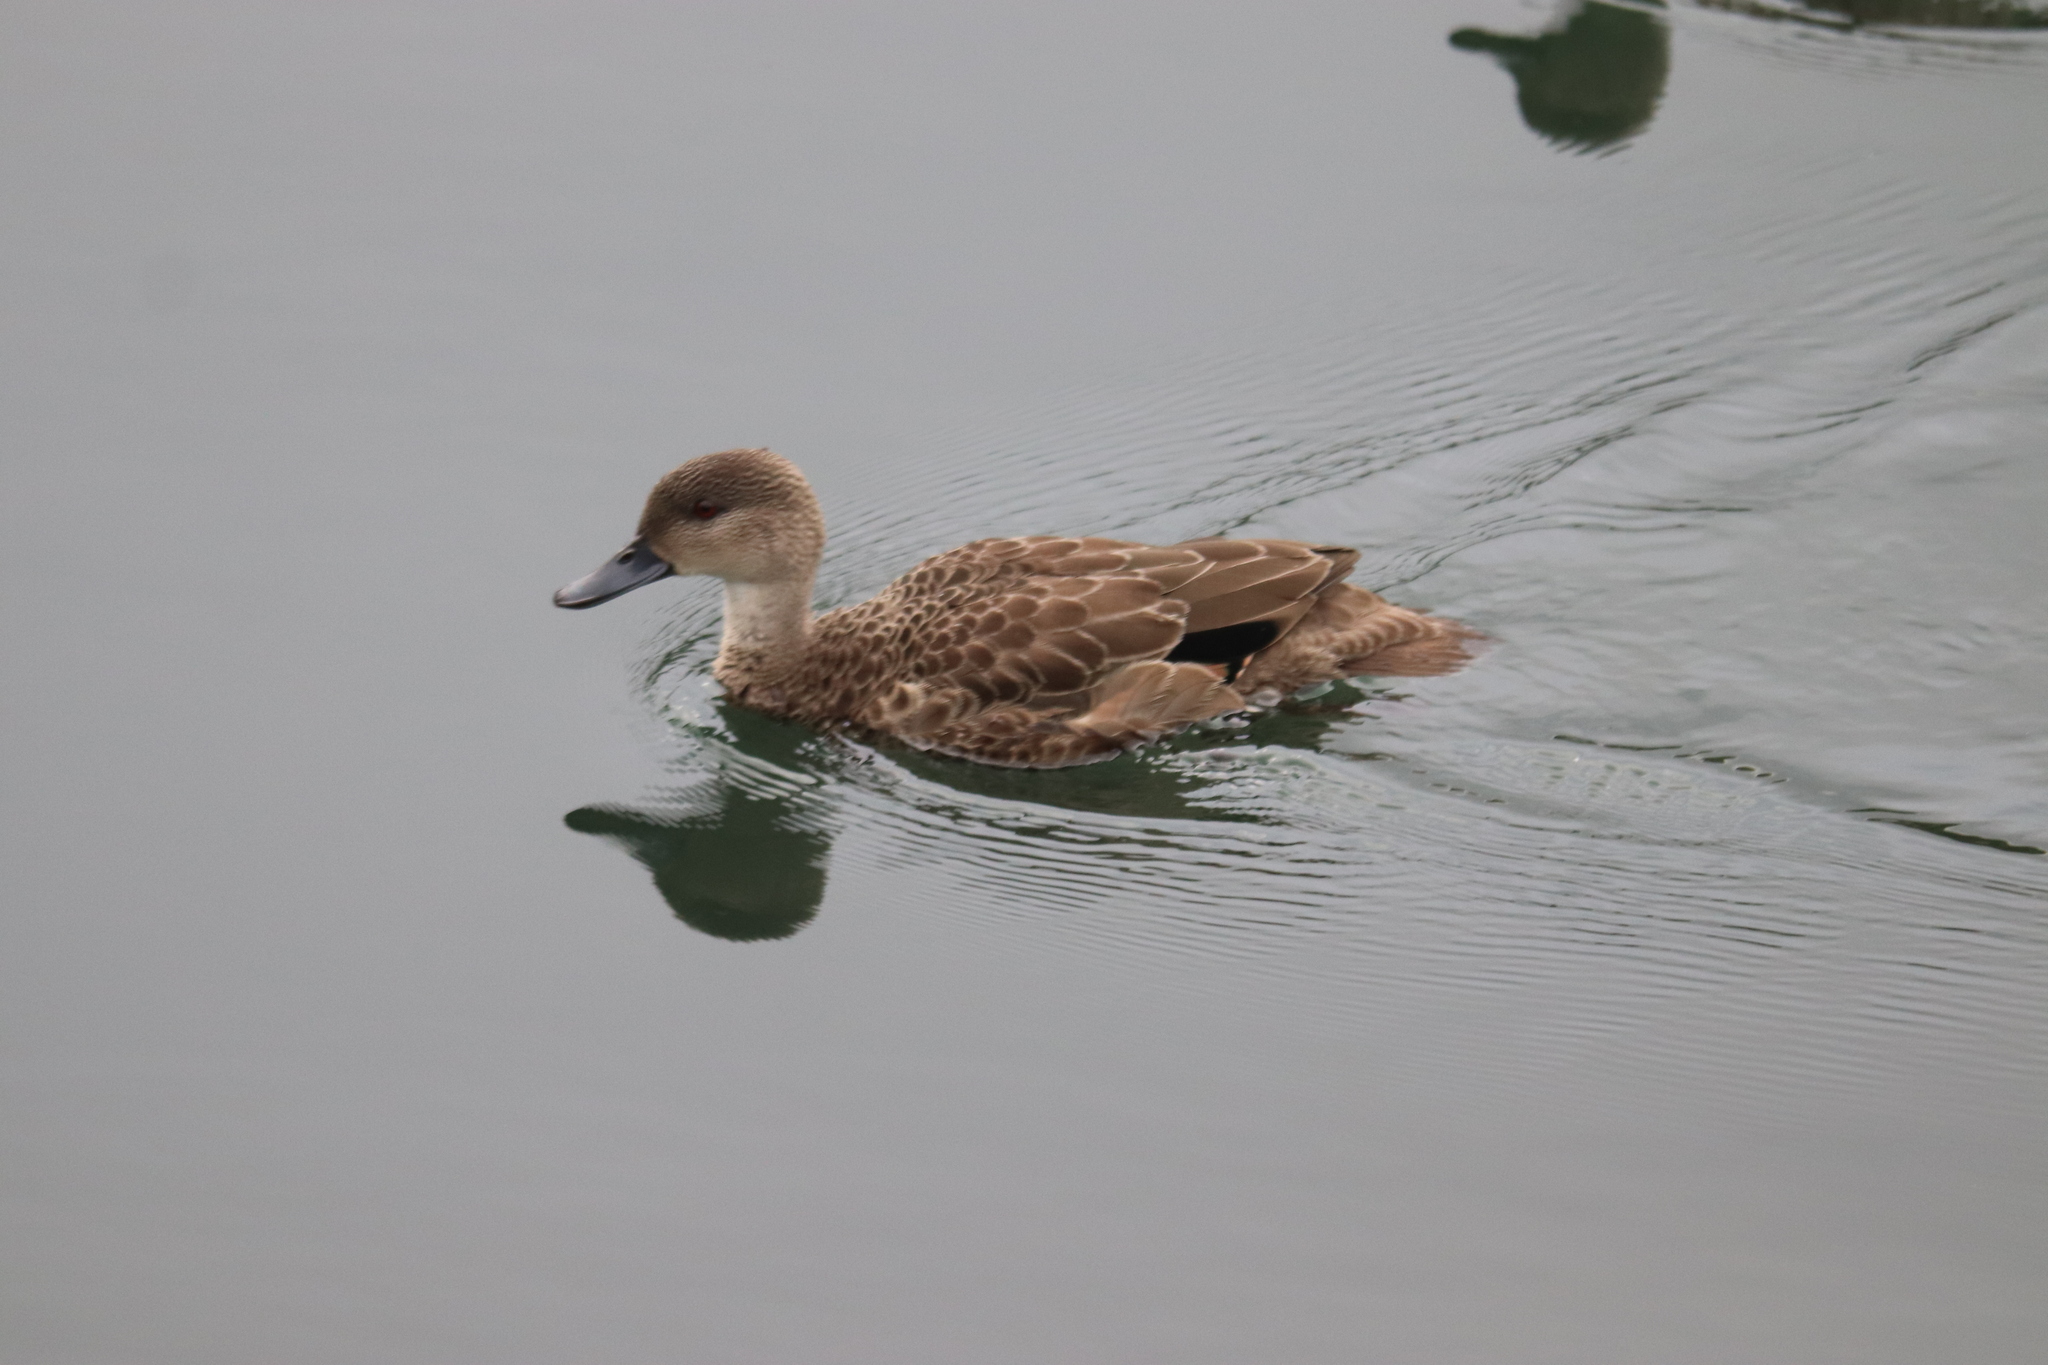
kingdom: Animalia
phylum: Chordata
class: Aves
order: Anseriformes
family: Anatidae
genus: Anas
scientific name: Anas gracilis
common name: Grey teal
